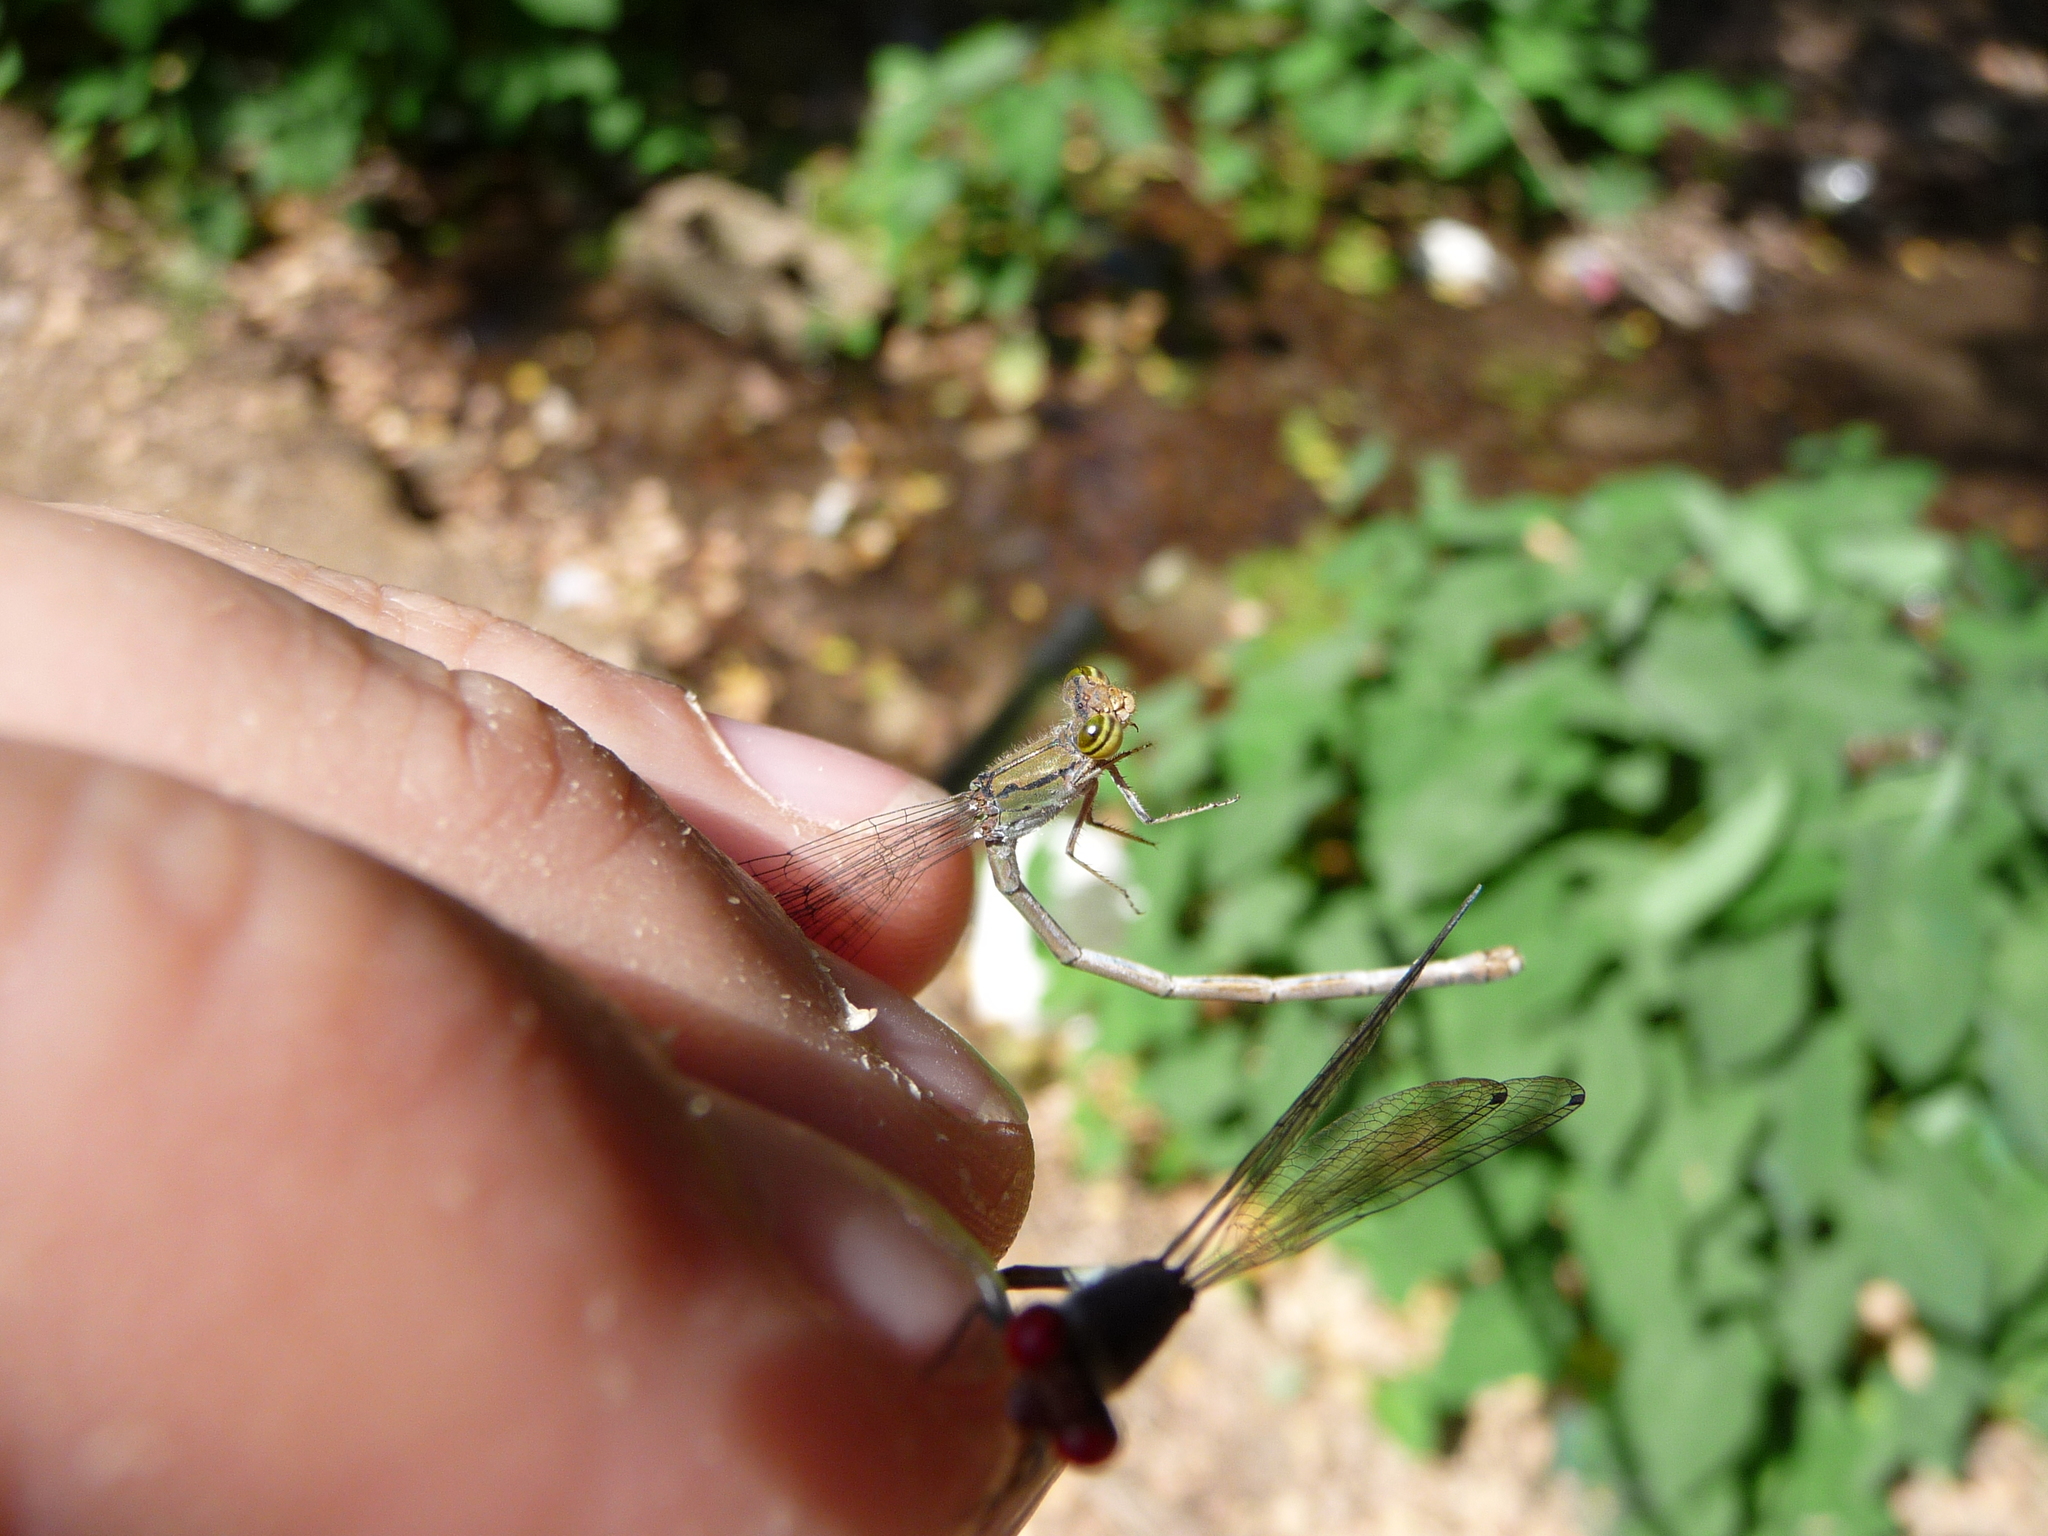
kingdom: Animalia
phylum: Arthropoda
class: Insecta
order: Odonata
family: Coenagrionidae
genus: Pseudagrion
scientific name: Pseudagrion sublacteum
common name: Cherry-eye sprite
